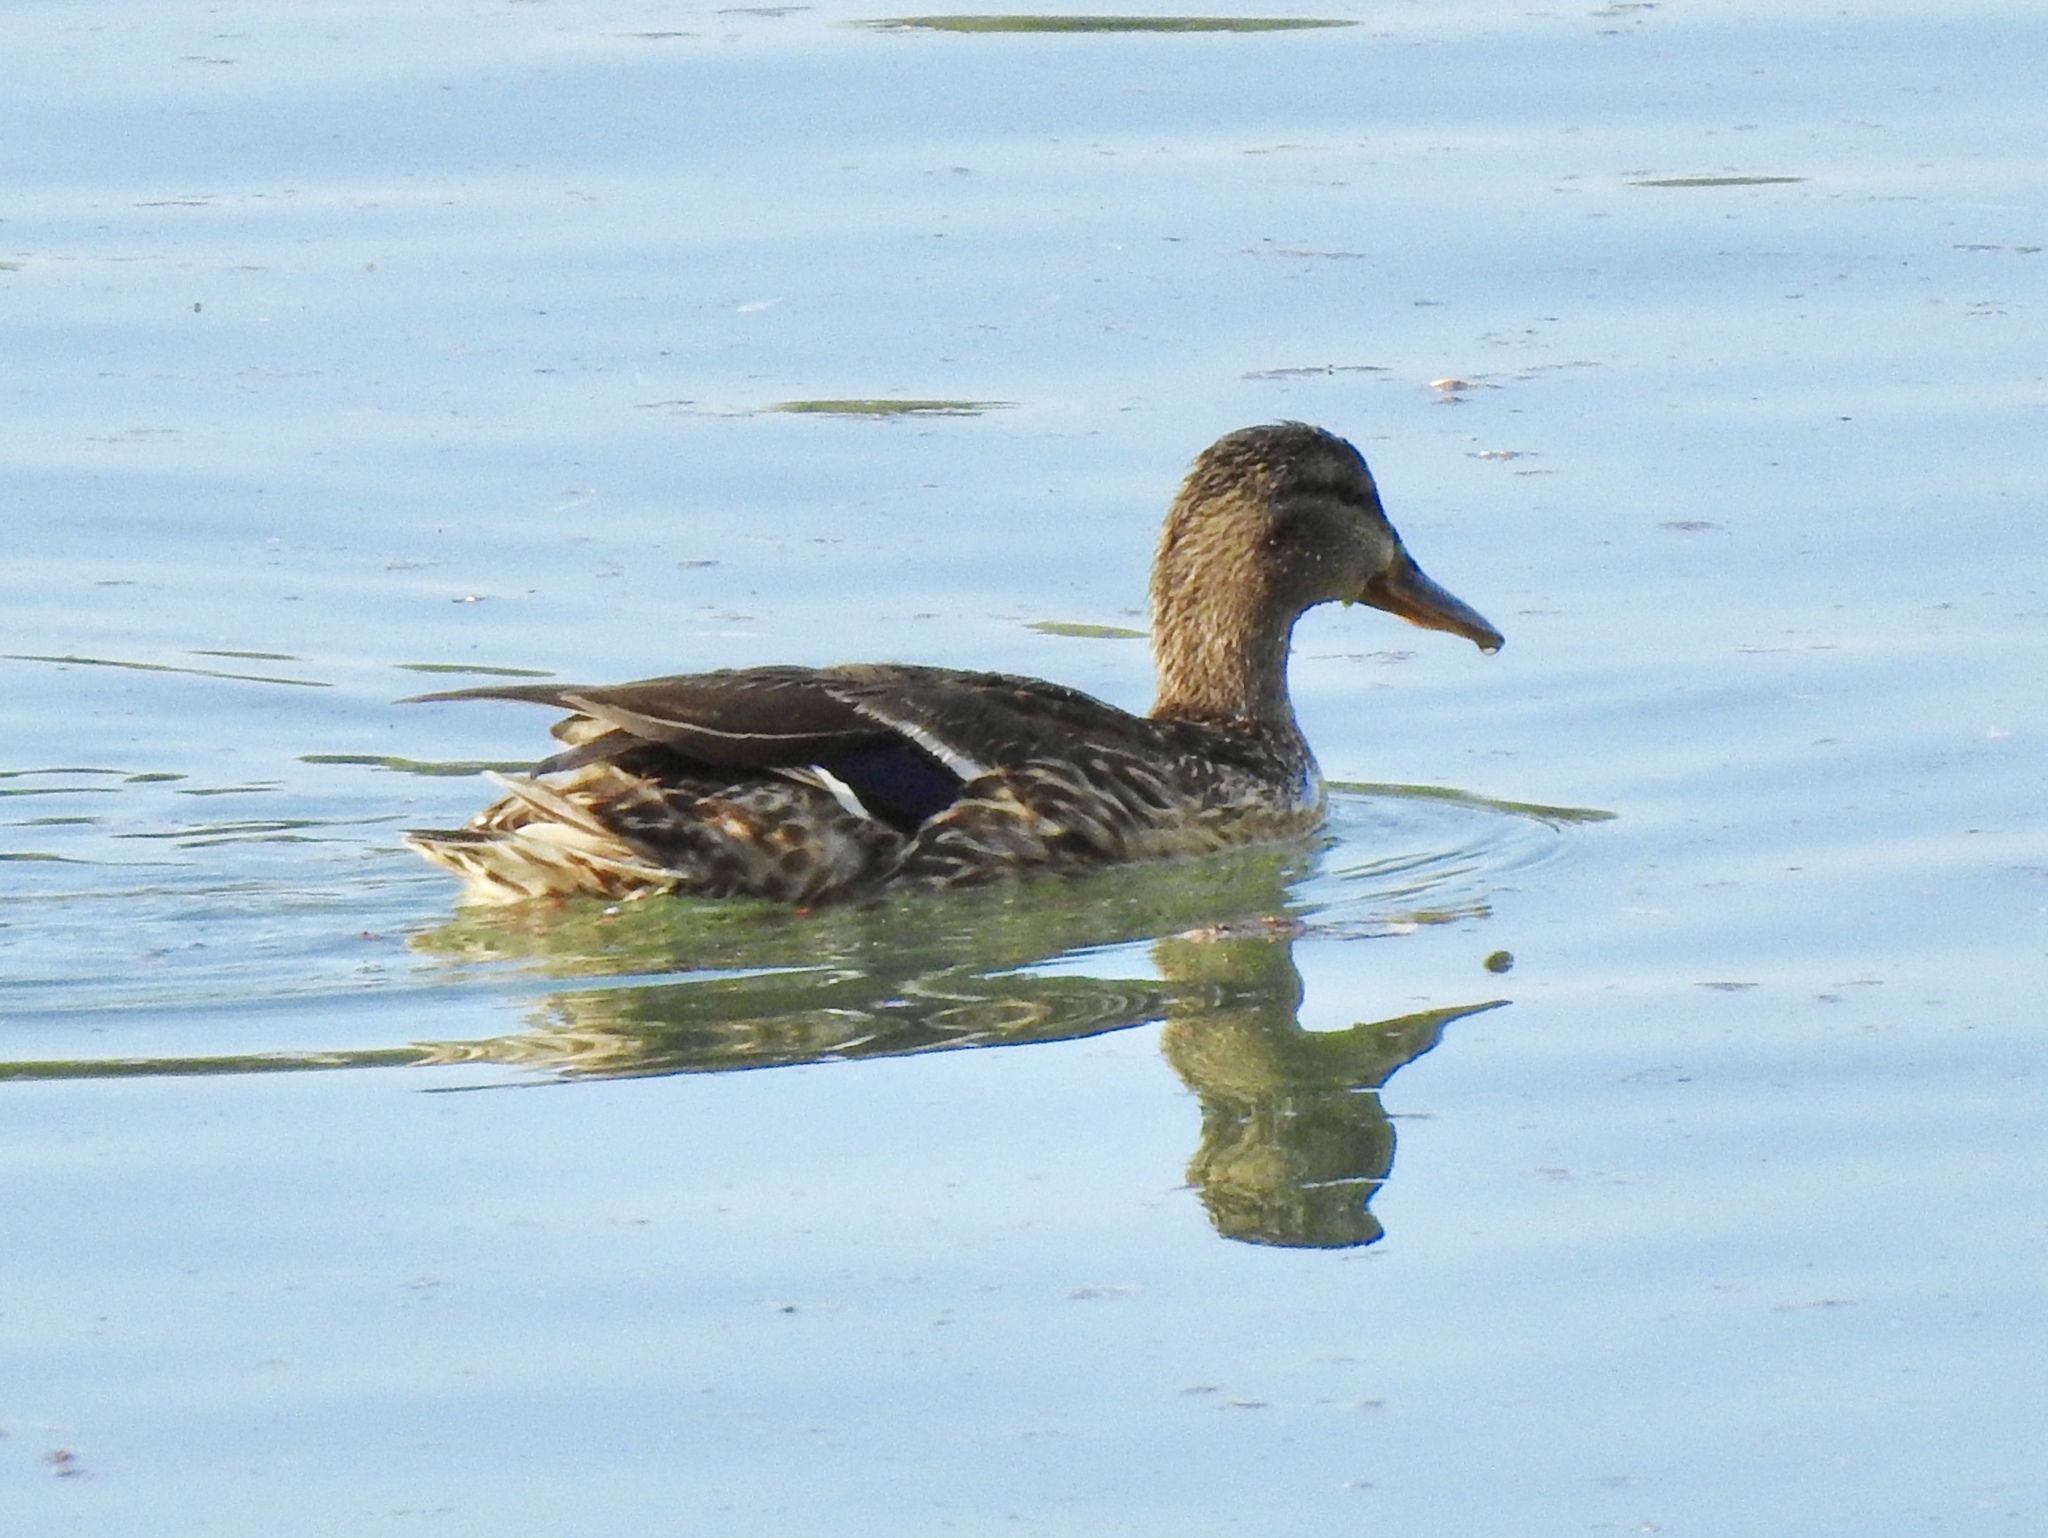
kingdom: Animalia
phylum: Chordata
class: Aves
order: Anseriformes
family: Anatidae
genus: Anas
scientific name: Anas platyrhynchos
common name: Mallard
